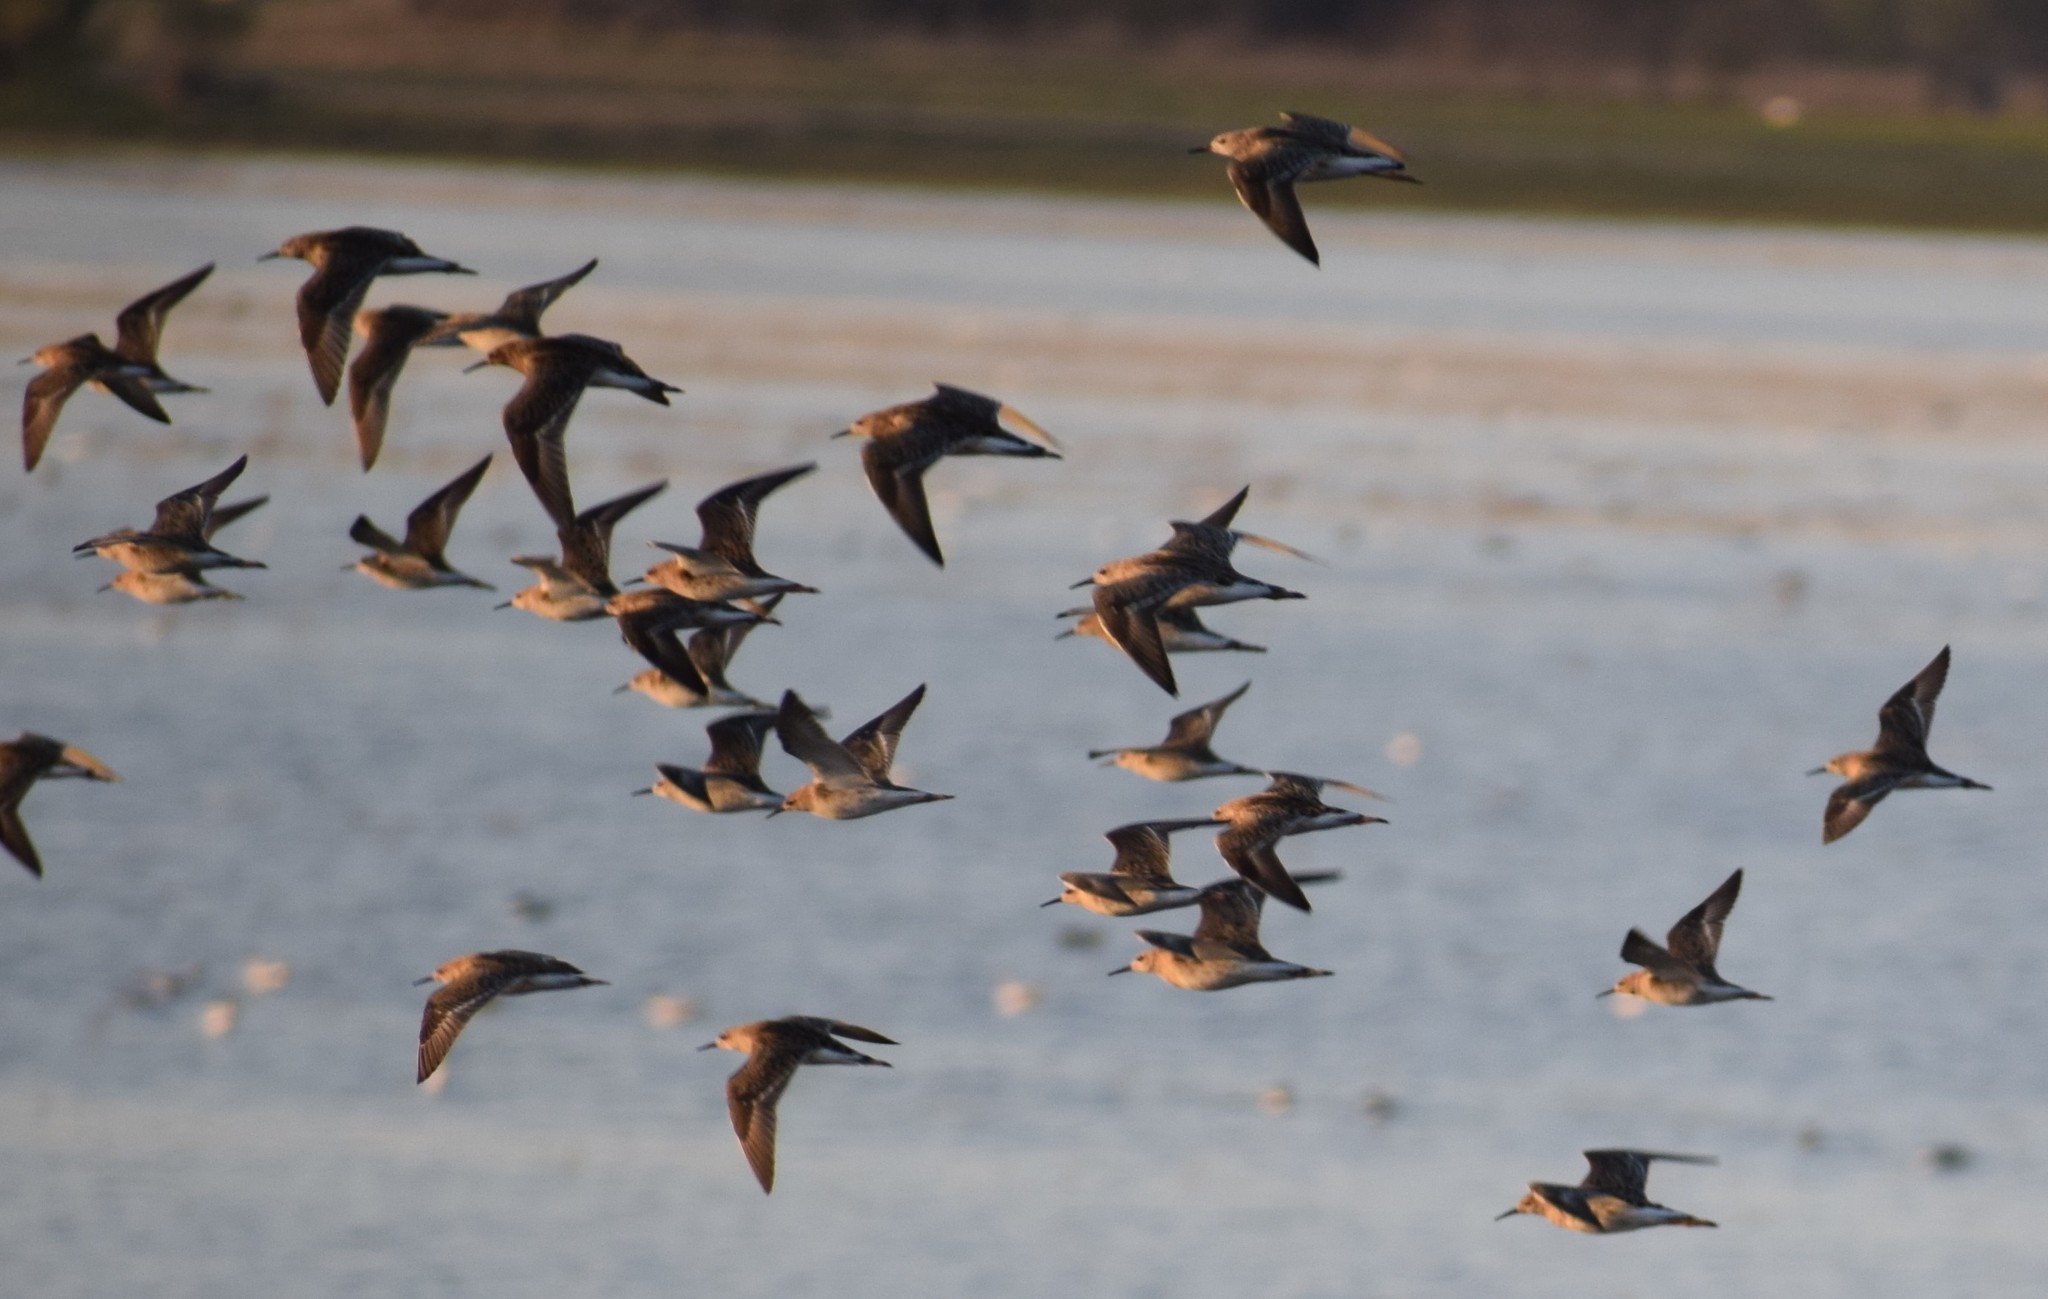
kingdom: Animalia
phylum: Chordata
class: Aves
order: Charadriiformes
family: Scolopacidae
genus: Calidris
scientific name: Calidris pugnax
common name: Ruff
